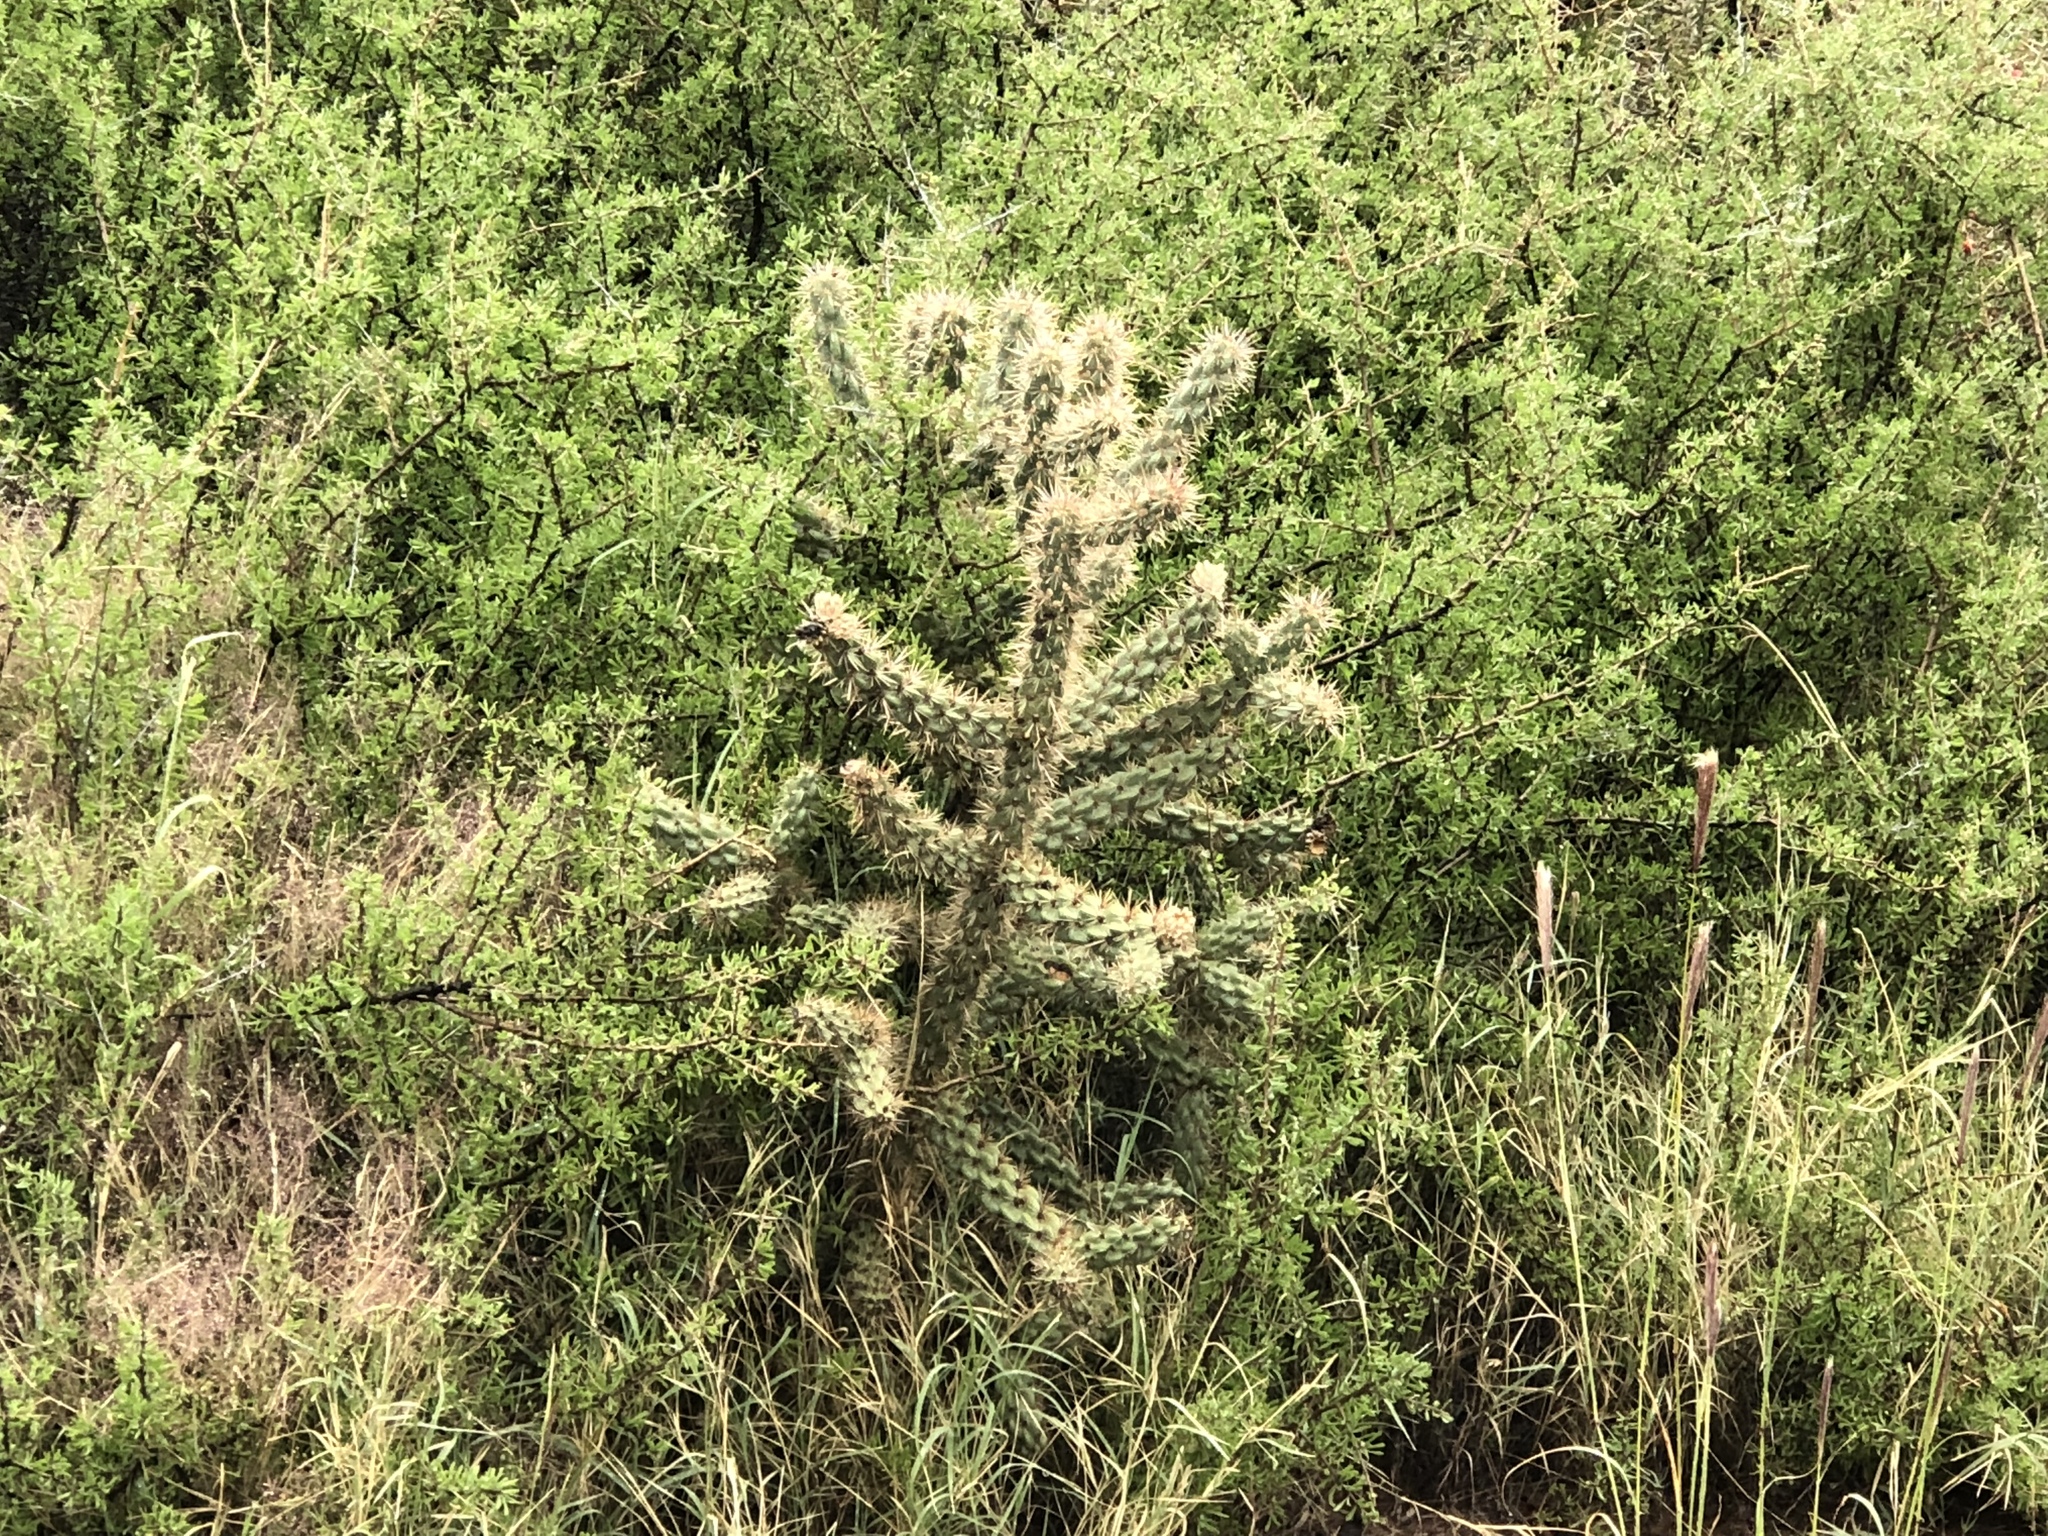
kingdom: Plantae
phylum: Tracheophyta
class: Magnoliopsida
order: Caryophyllales
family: Cactaceae
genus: Cylindropuntia
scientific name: Cylindropuntia imbricata
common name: Candelabrum cactus
